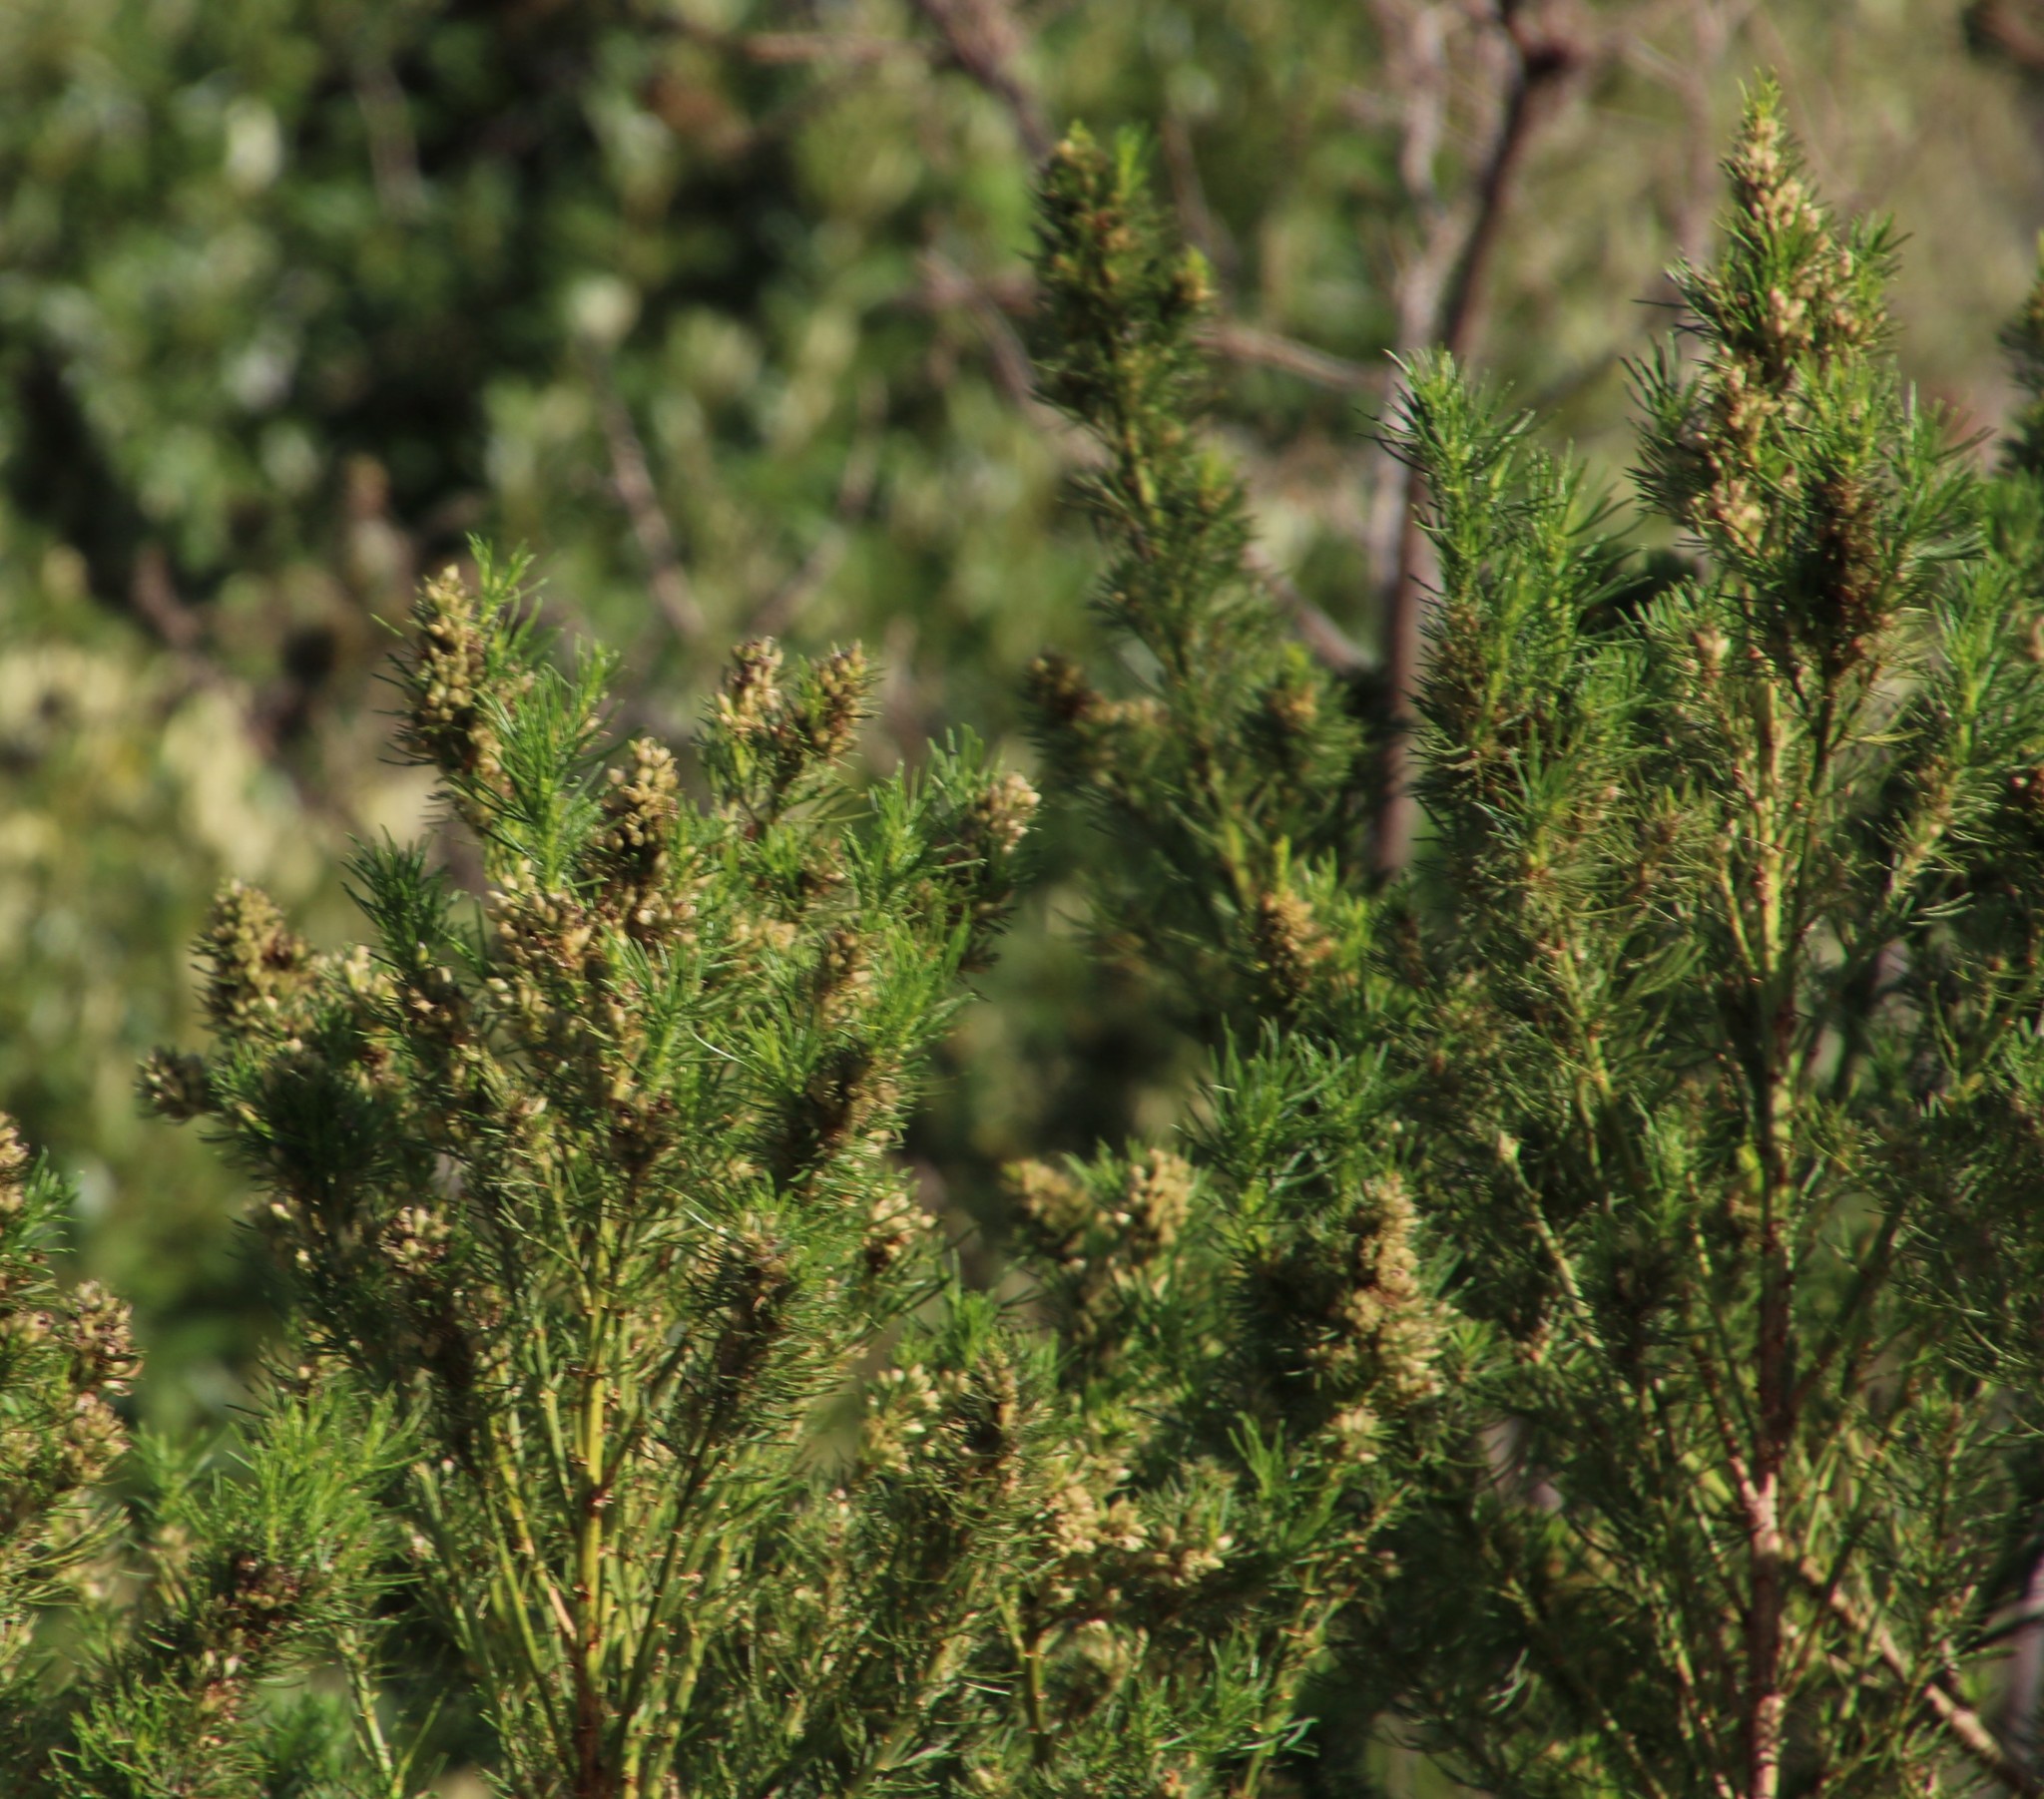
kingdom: Plantae
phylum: Tracheophyta
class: Magnoliopsida
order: Fabales
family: Fabaceae
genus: Psoralea
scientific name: Psoralea pinnata
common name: African scurfpea
